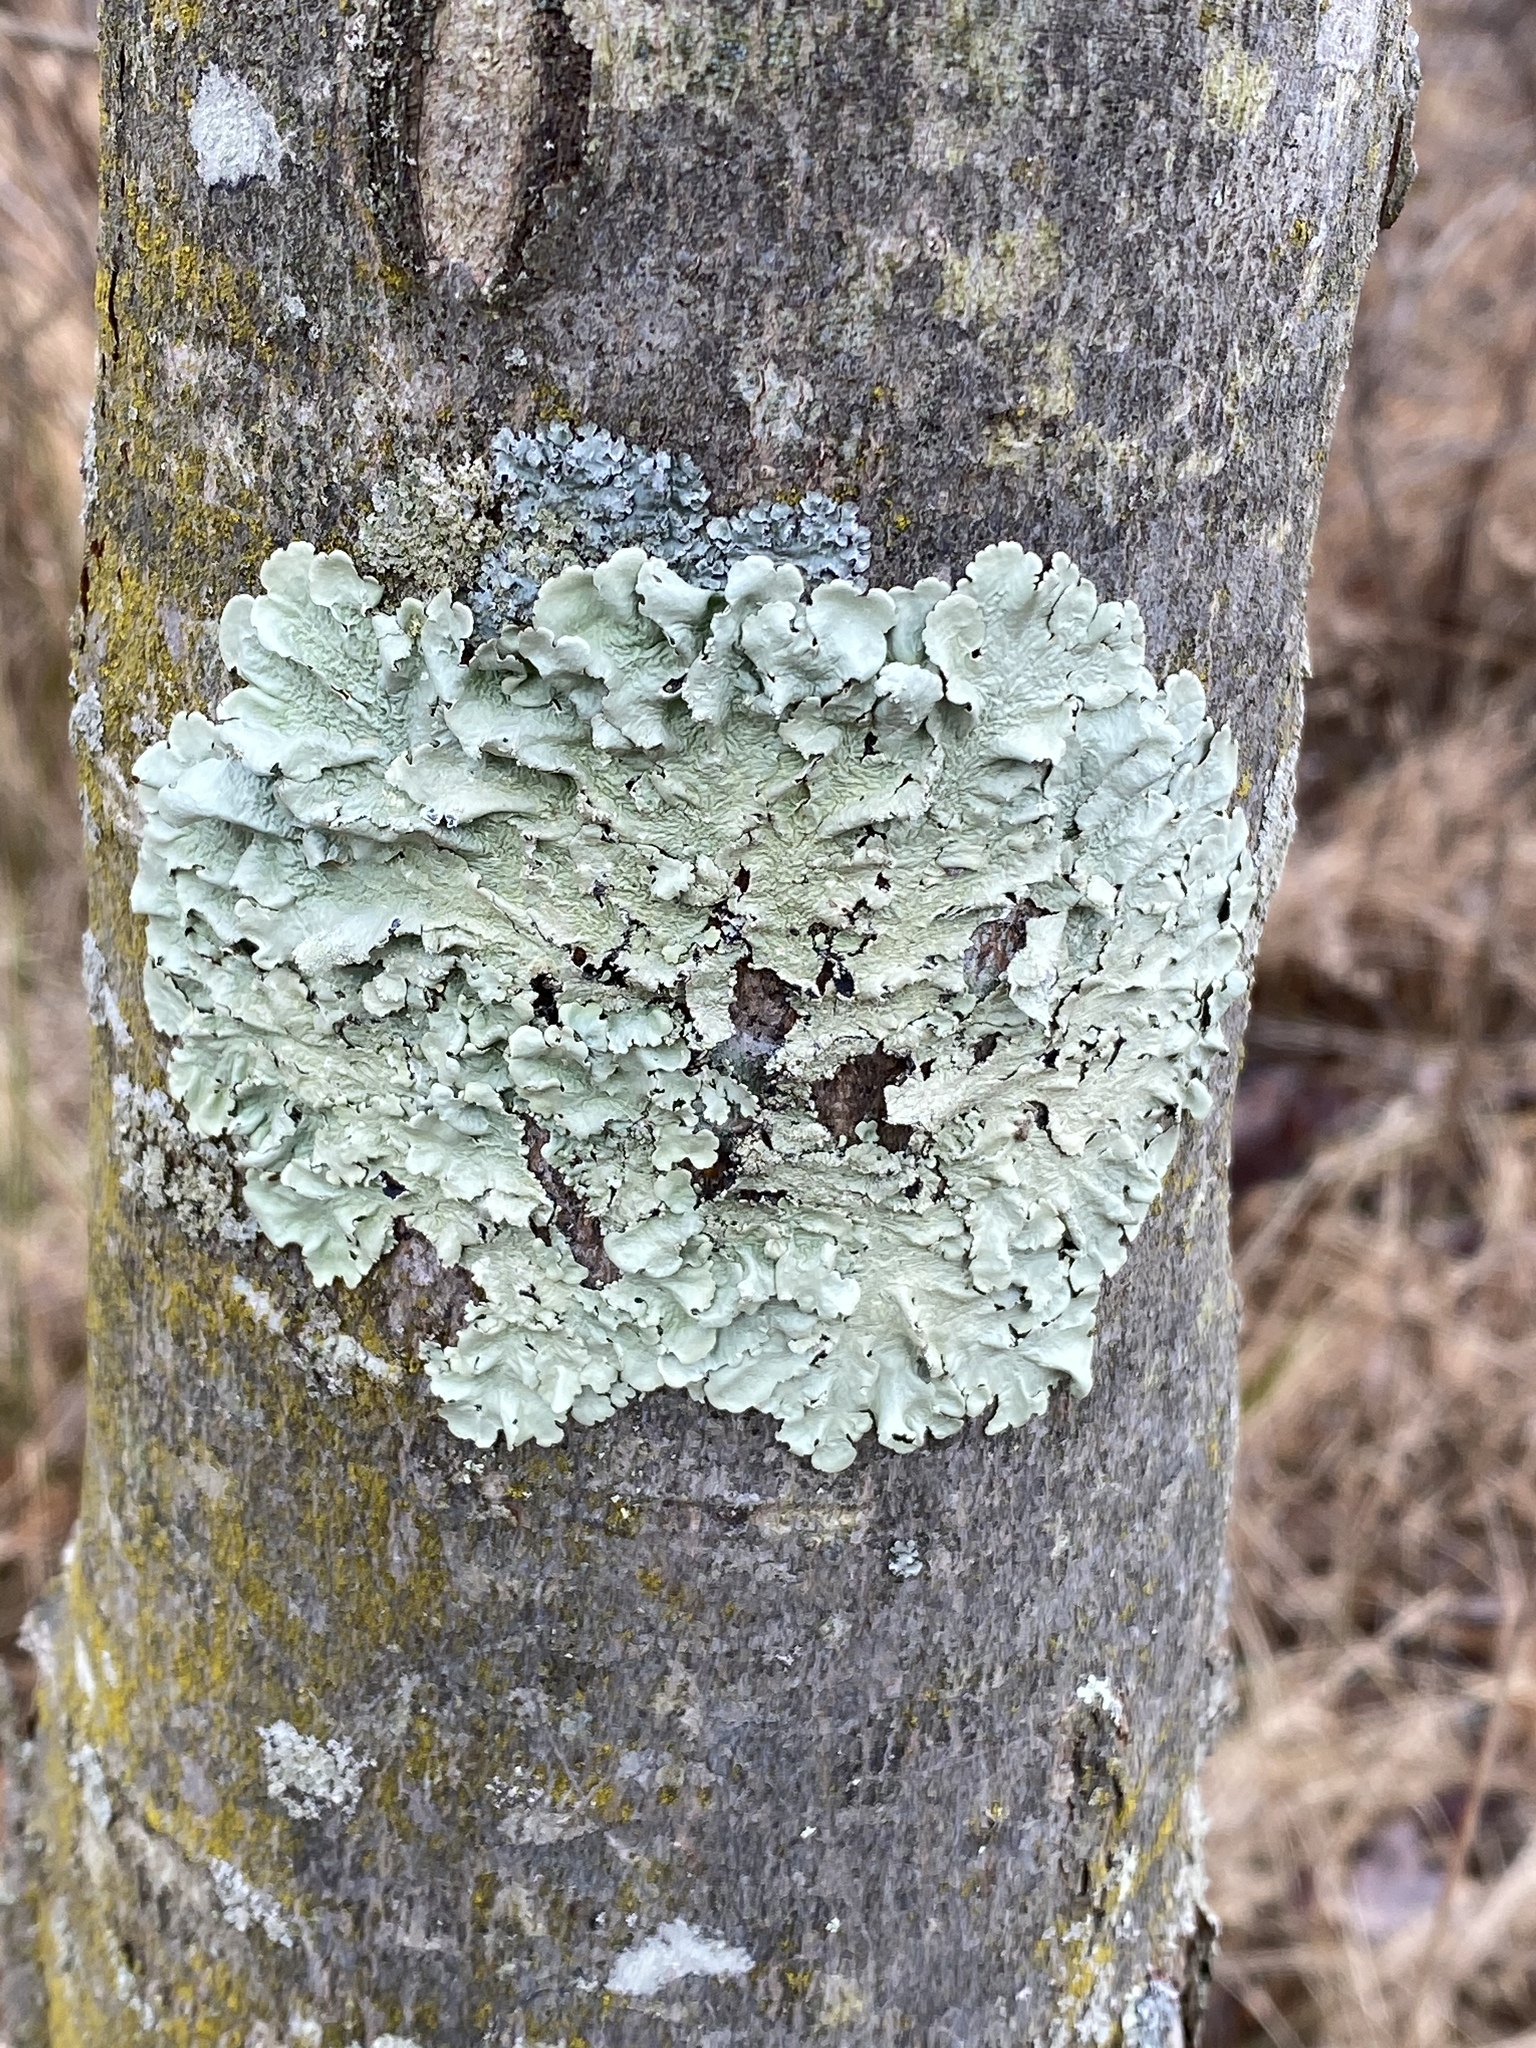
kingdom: Fungi
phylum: Ascomycota
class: Lecanoromycetes
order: Lecanorales
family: Parmeliaceae
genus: Flavoparmelia
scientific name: Flavoparmelia caperata
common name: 40-mile per hour lichen
